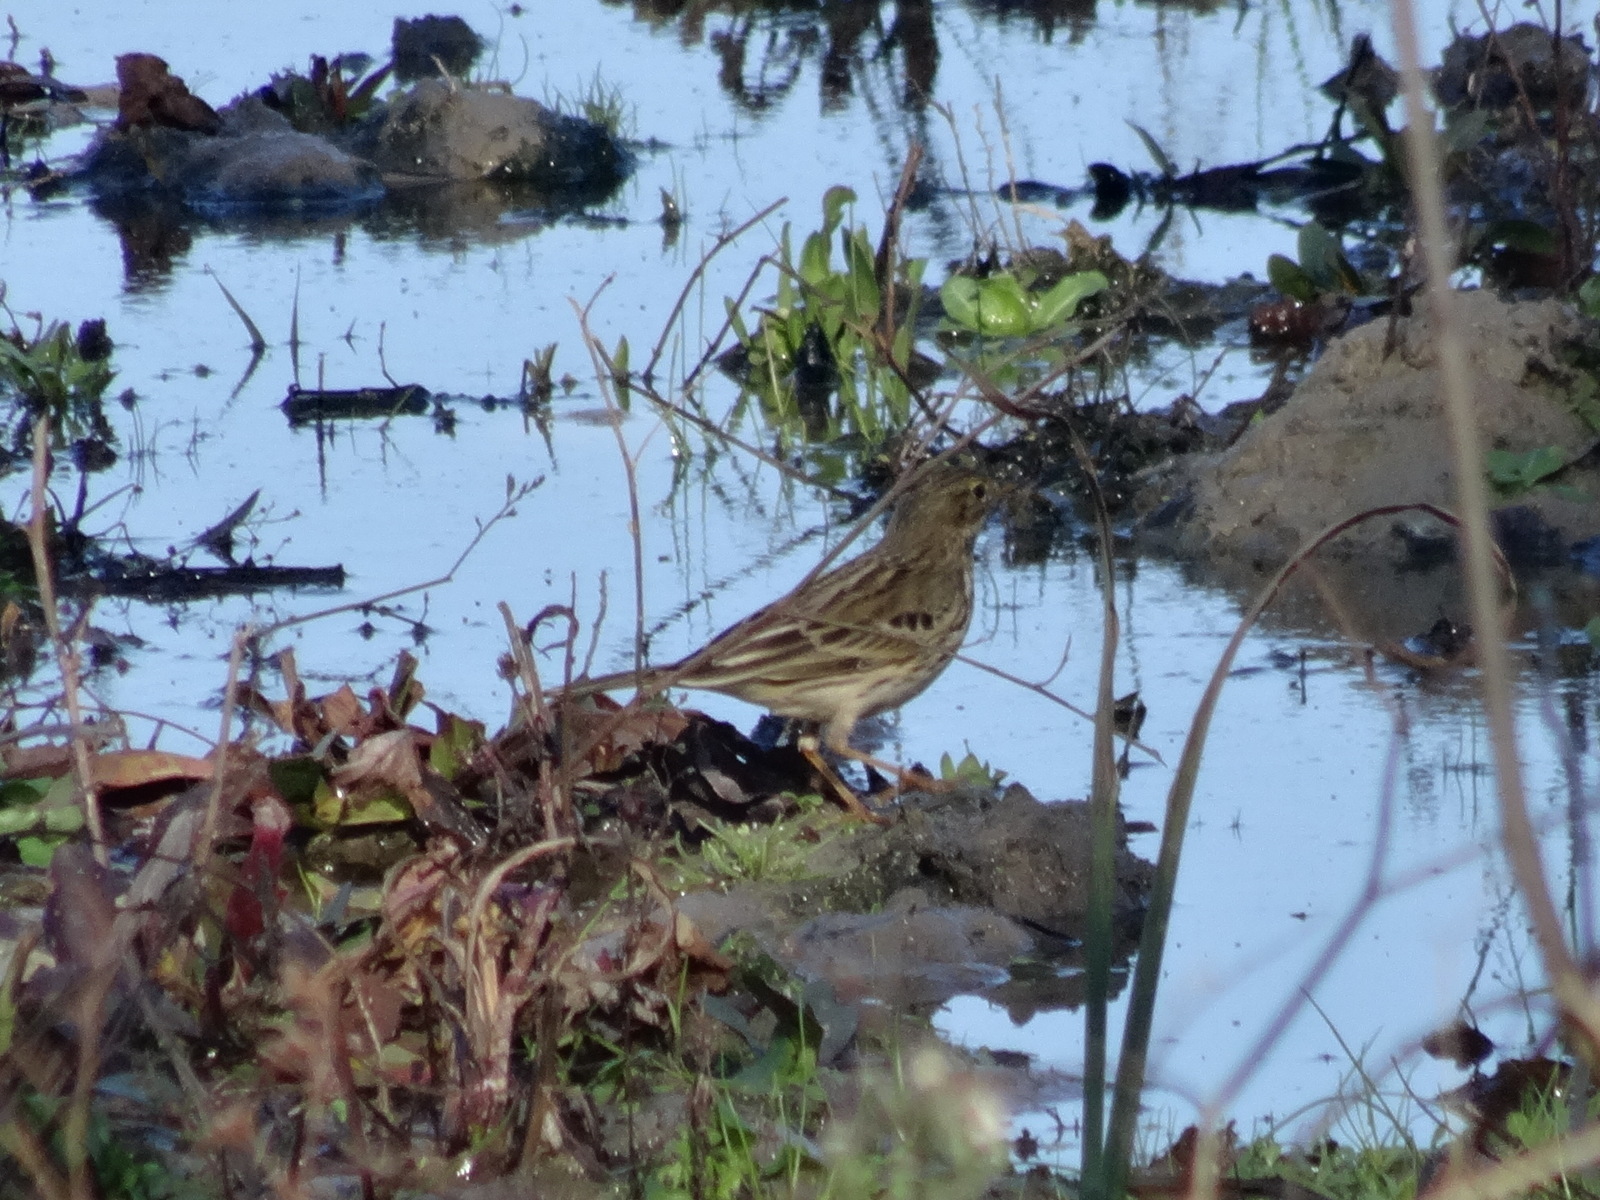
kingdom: Animalia
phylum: Chordata
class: Aves
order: Passeriformes
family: Motacillidae
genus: Anthus
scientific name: Anthus pratensis
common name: Meadow pipit
